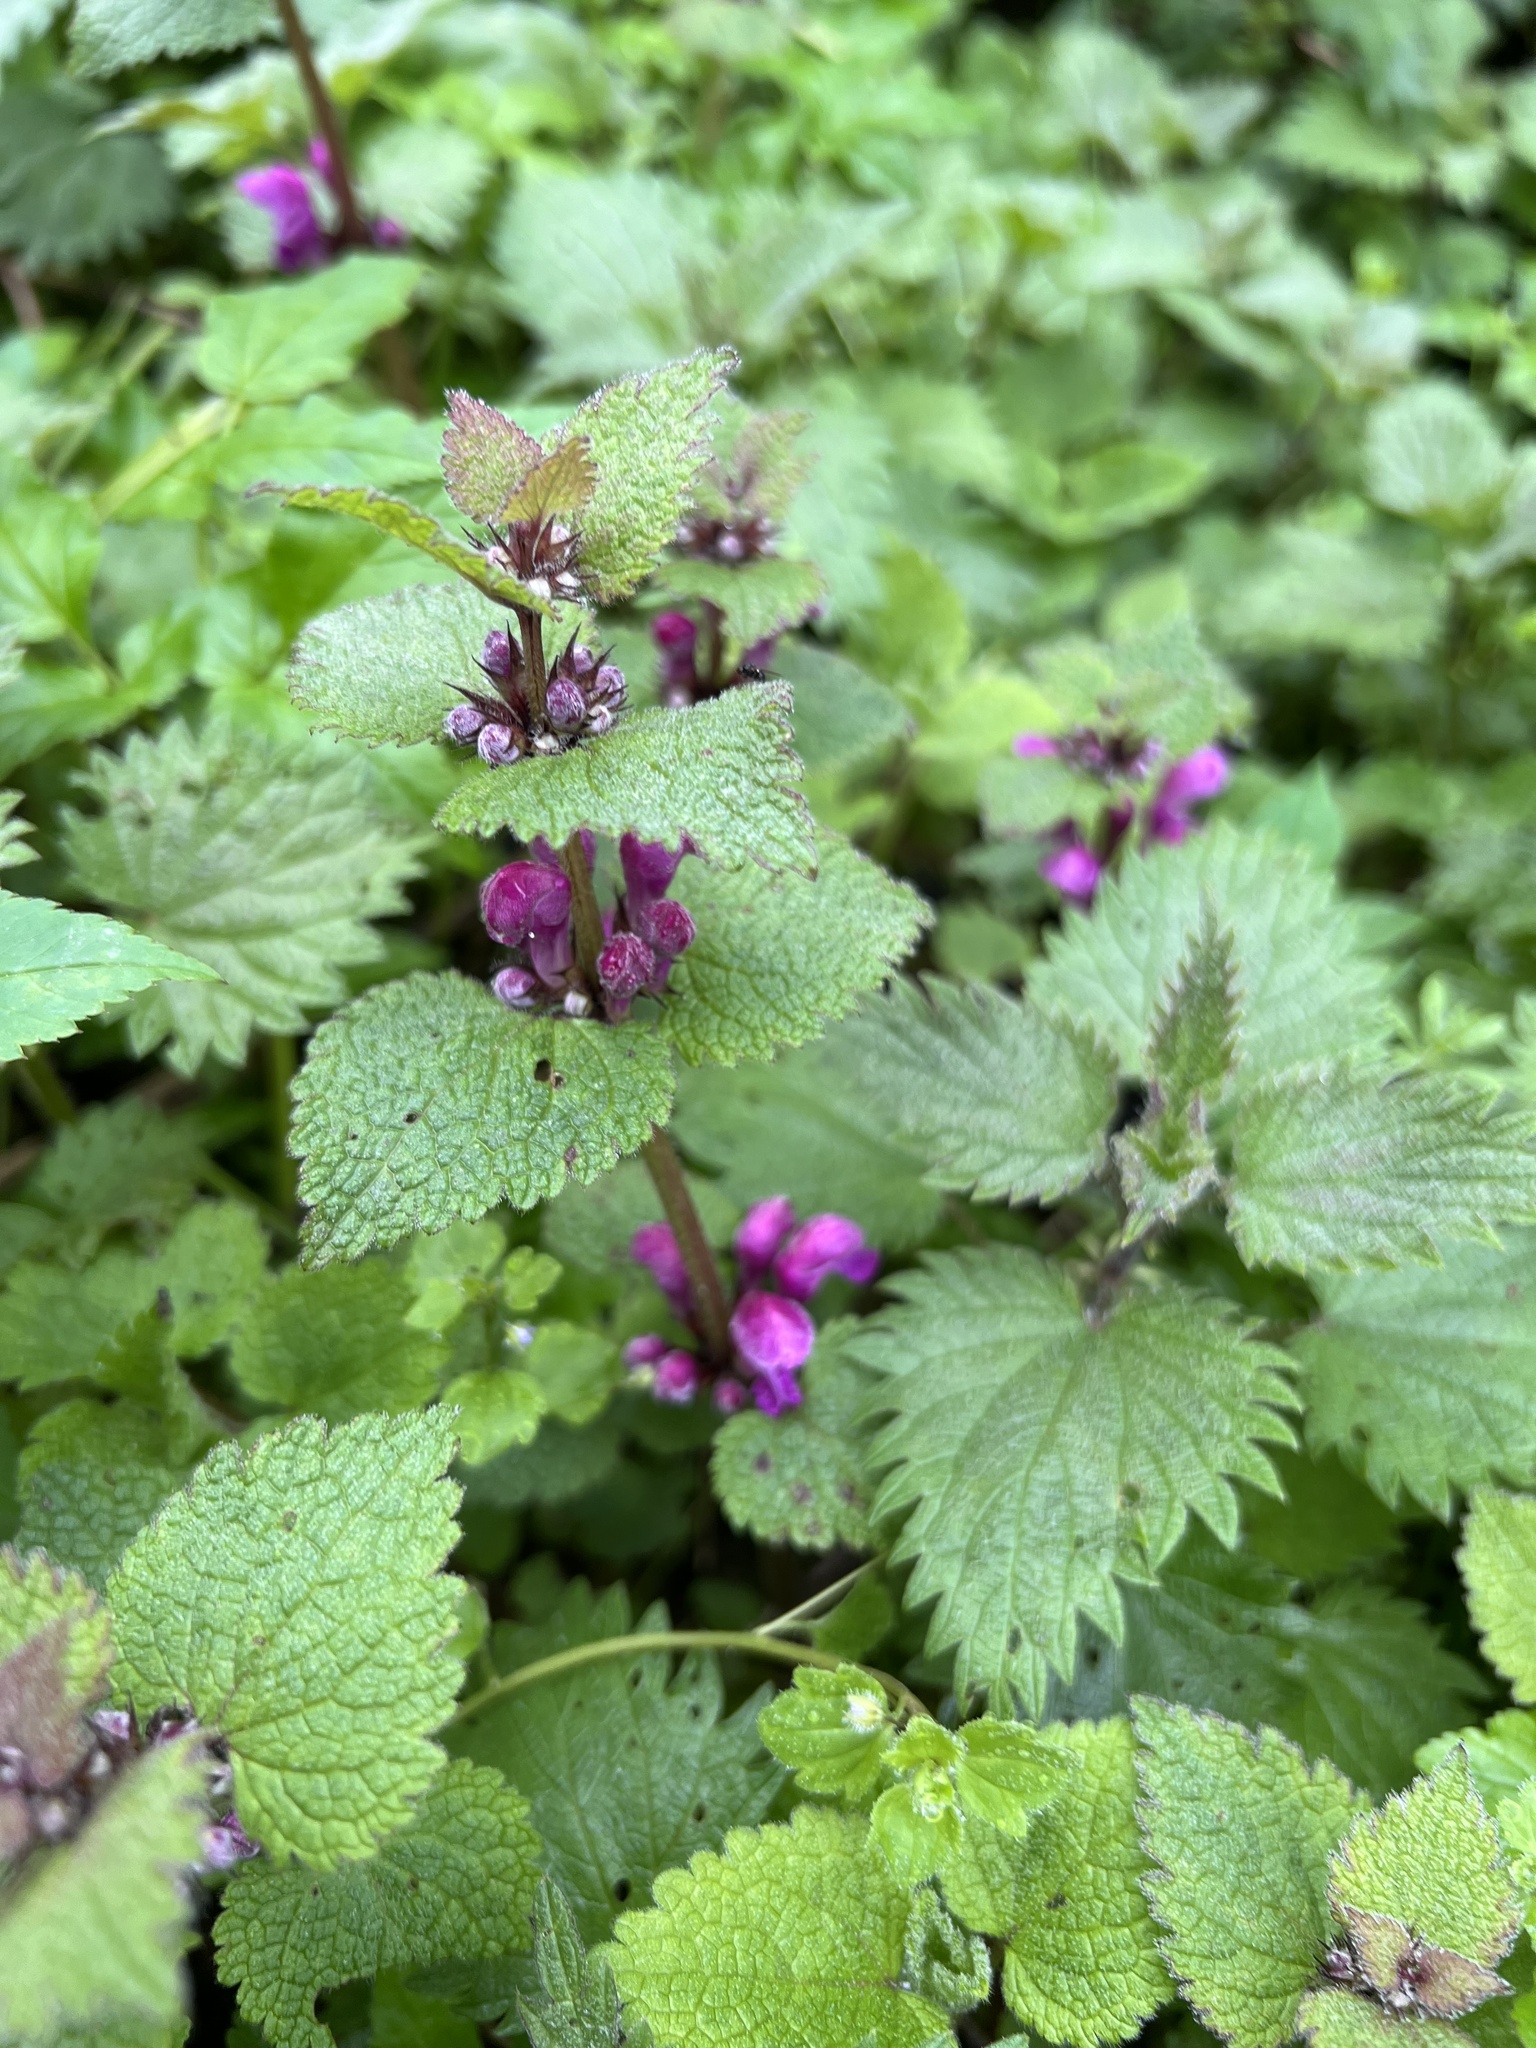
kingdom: Plantae
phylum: Tracheophyta
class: Magnoliopsida
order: Lamiales
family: Lamiaceae
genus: Lamium
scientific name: Lamium maculatum
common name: Spotted dead-nettle
